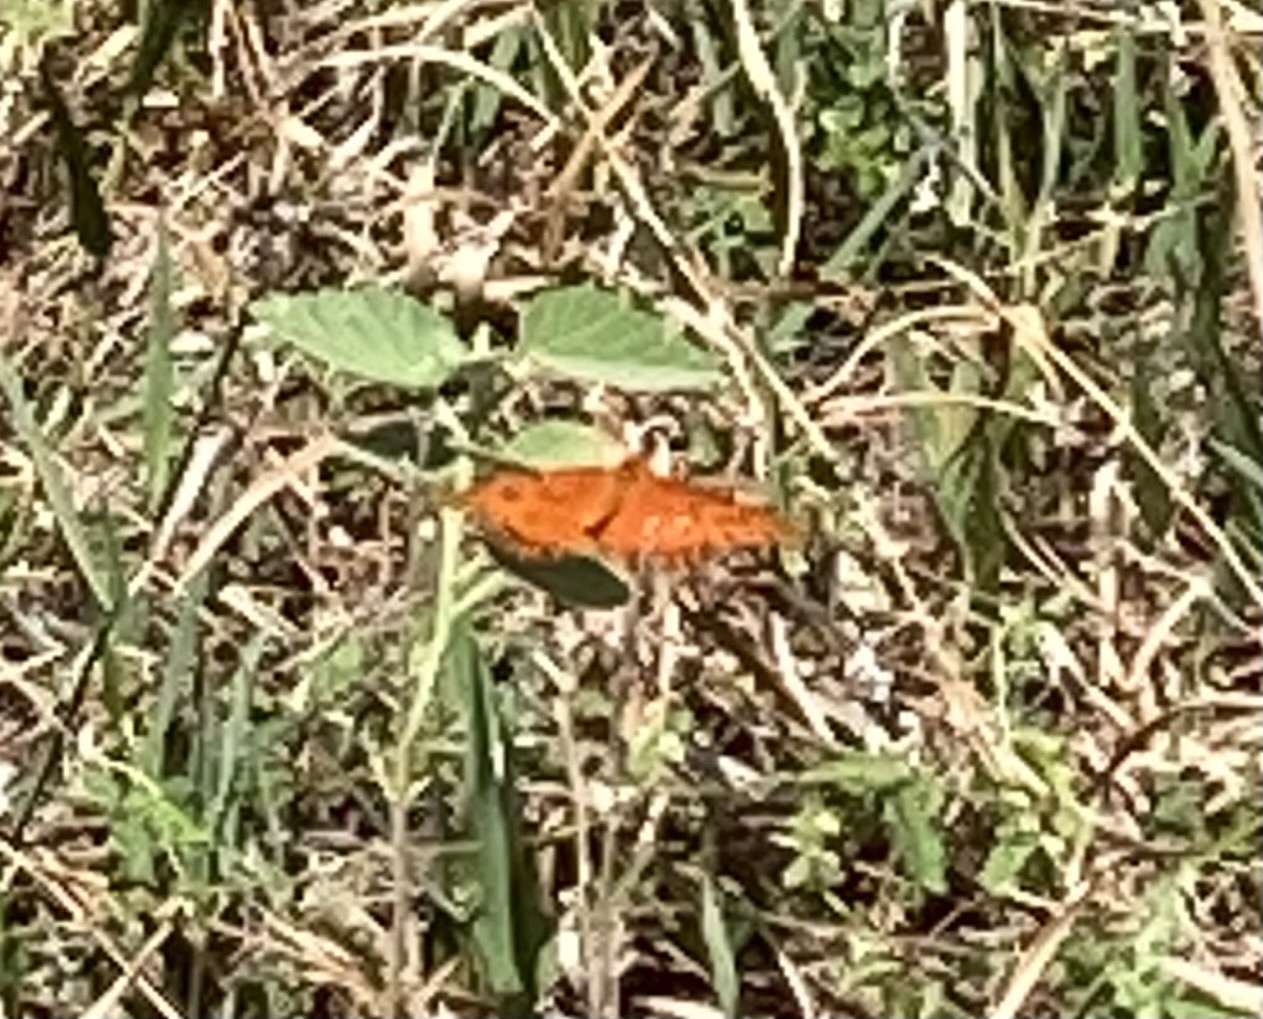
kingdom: Animalia
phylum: Arthropoda
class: Insecta
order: Lepidoptera
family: Nymphalidae
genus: Dione
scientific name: Dione vanillae
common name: Gulf fritillary
